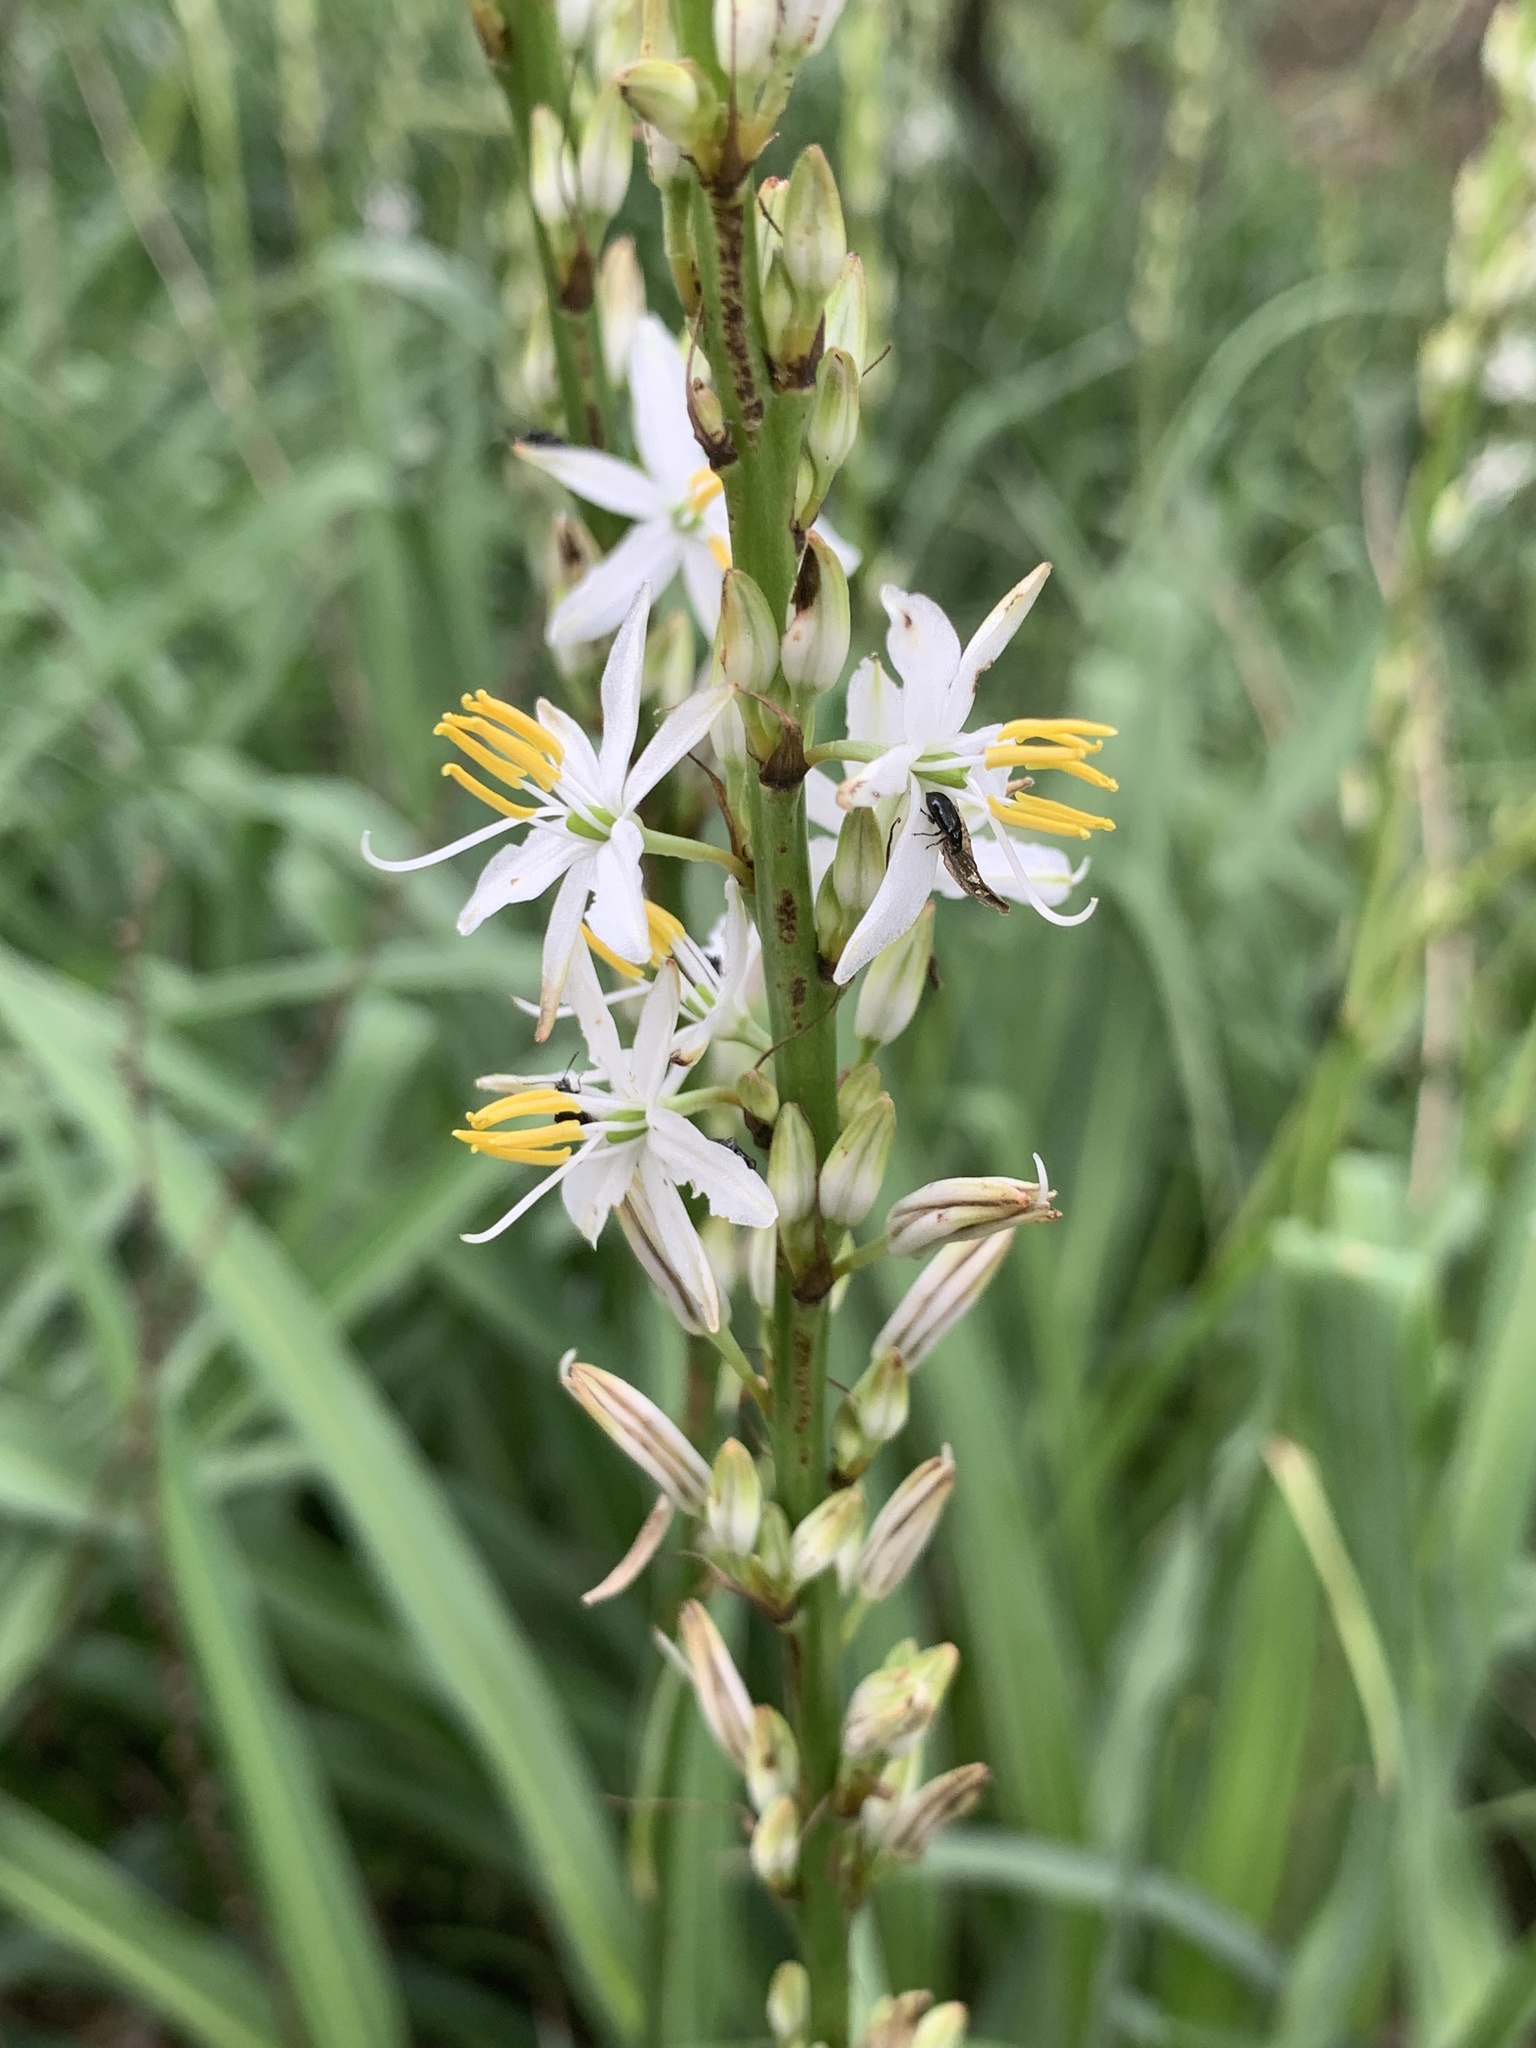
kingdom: Plantae
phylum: Tracheophyta
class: Liliopsida
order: Asparagales
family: Asparagaceae
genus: Chlorophytum
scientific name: Chlorophytum bowkeri
